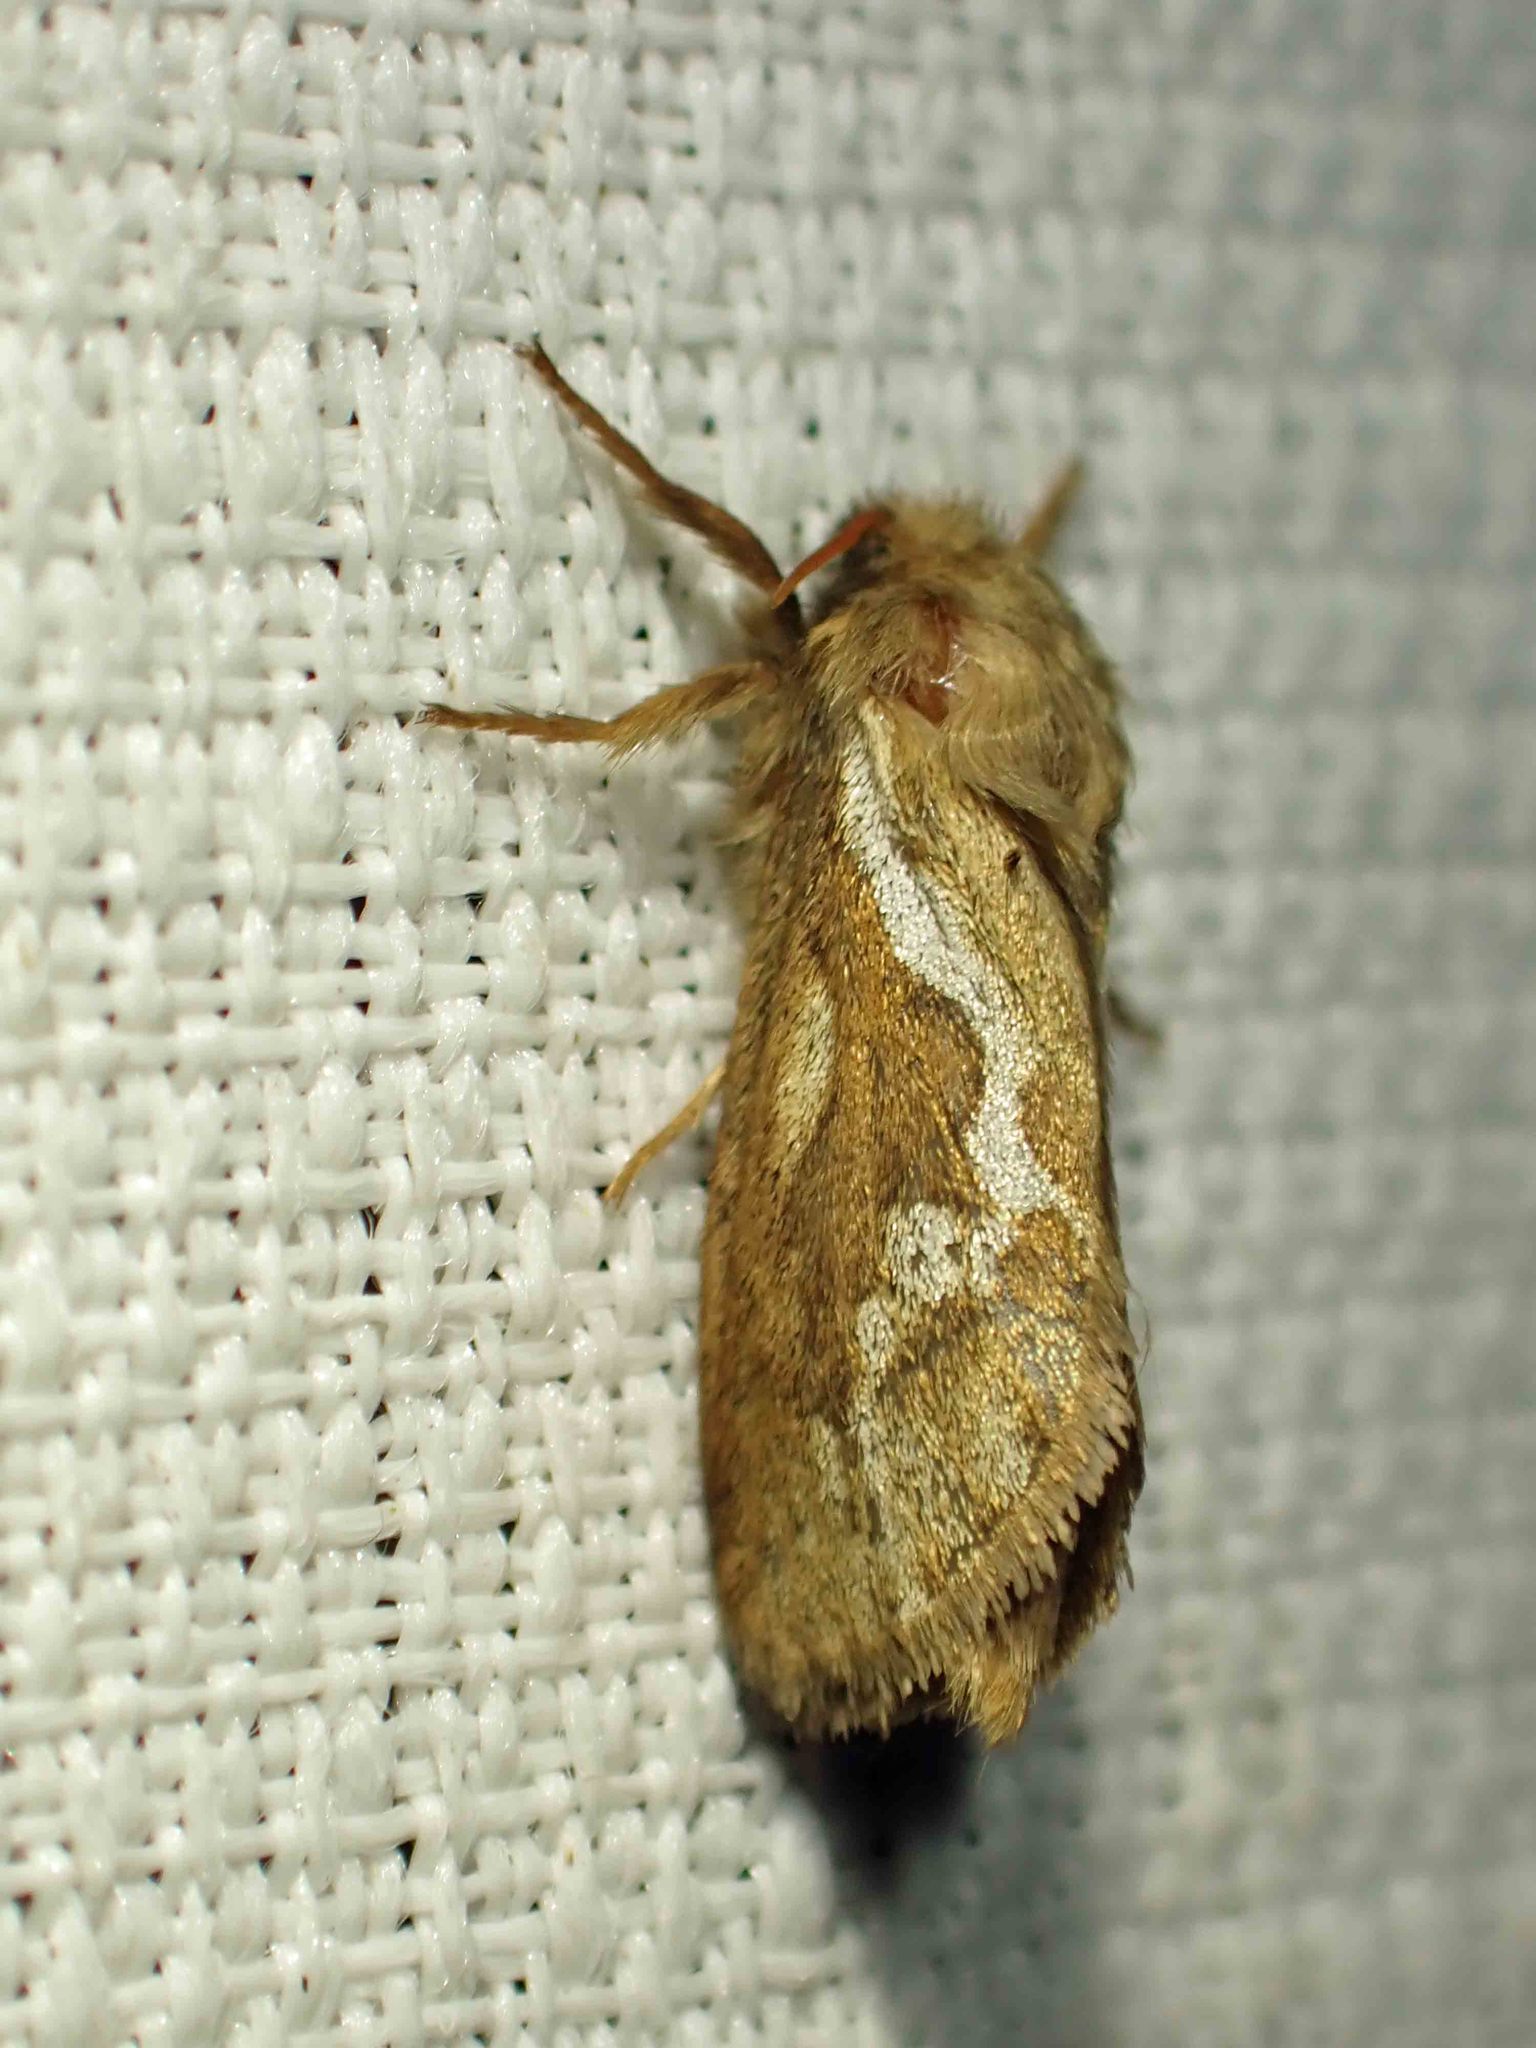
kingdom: Animalia
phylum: Arthropoda
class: Insecta
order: Lepidoptera
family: Hepialidae
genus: Korscheltellus
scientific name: Korscheltellus lupulina
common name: Common swift
